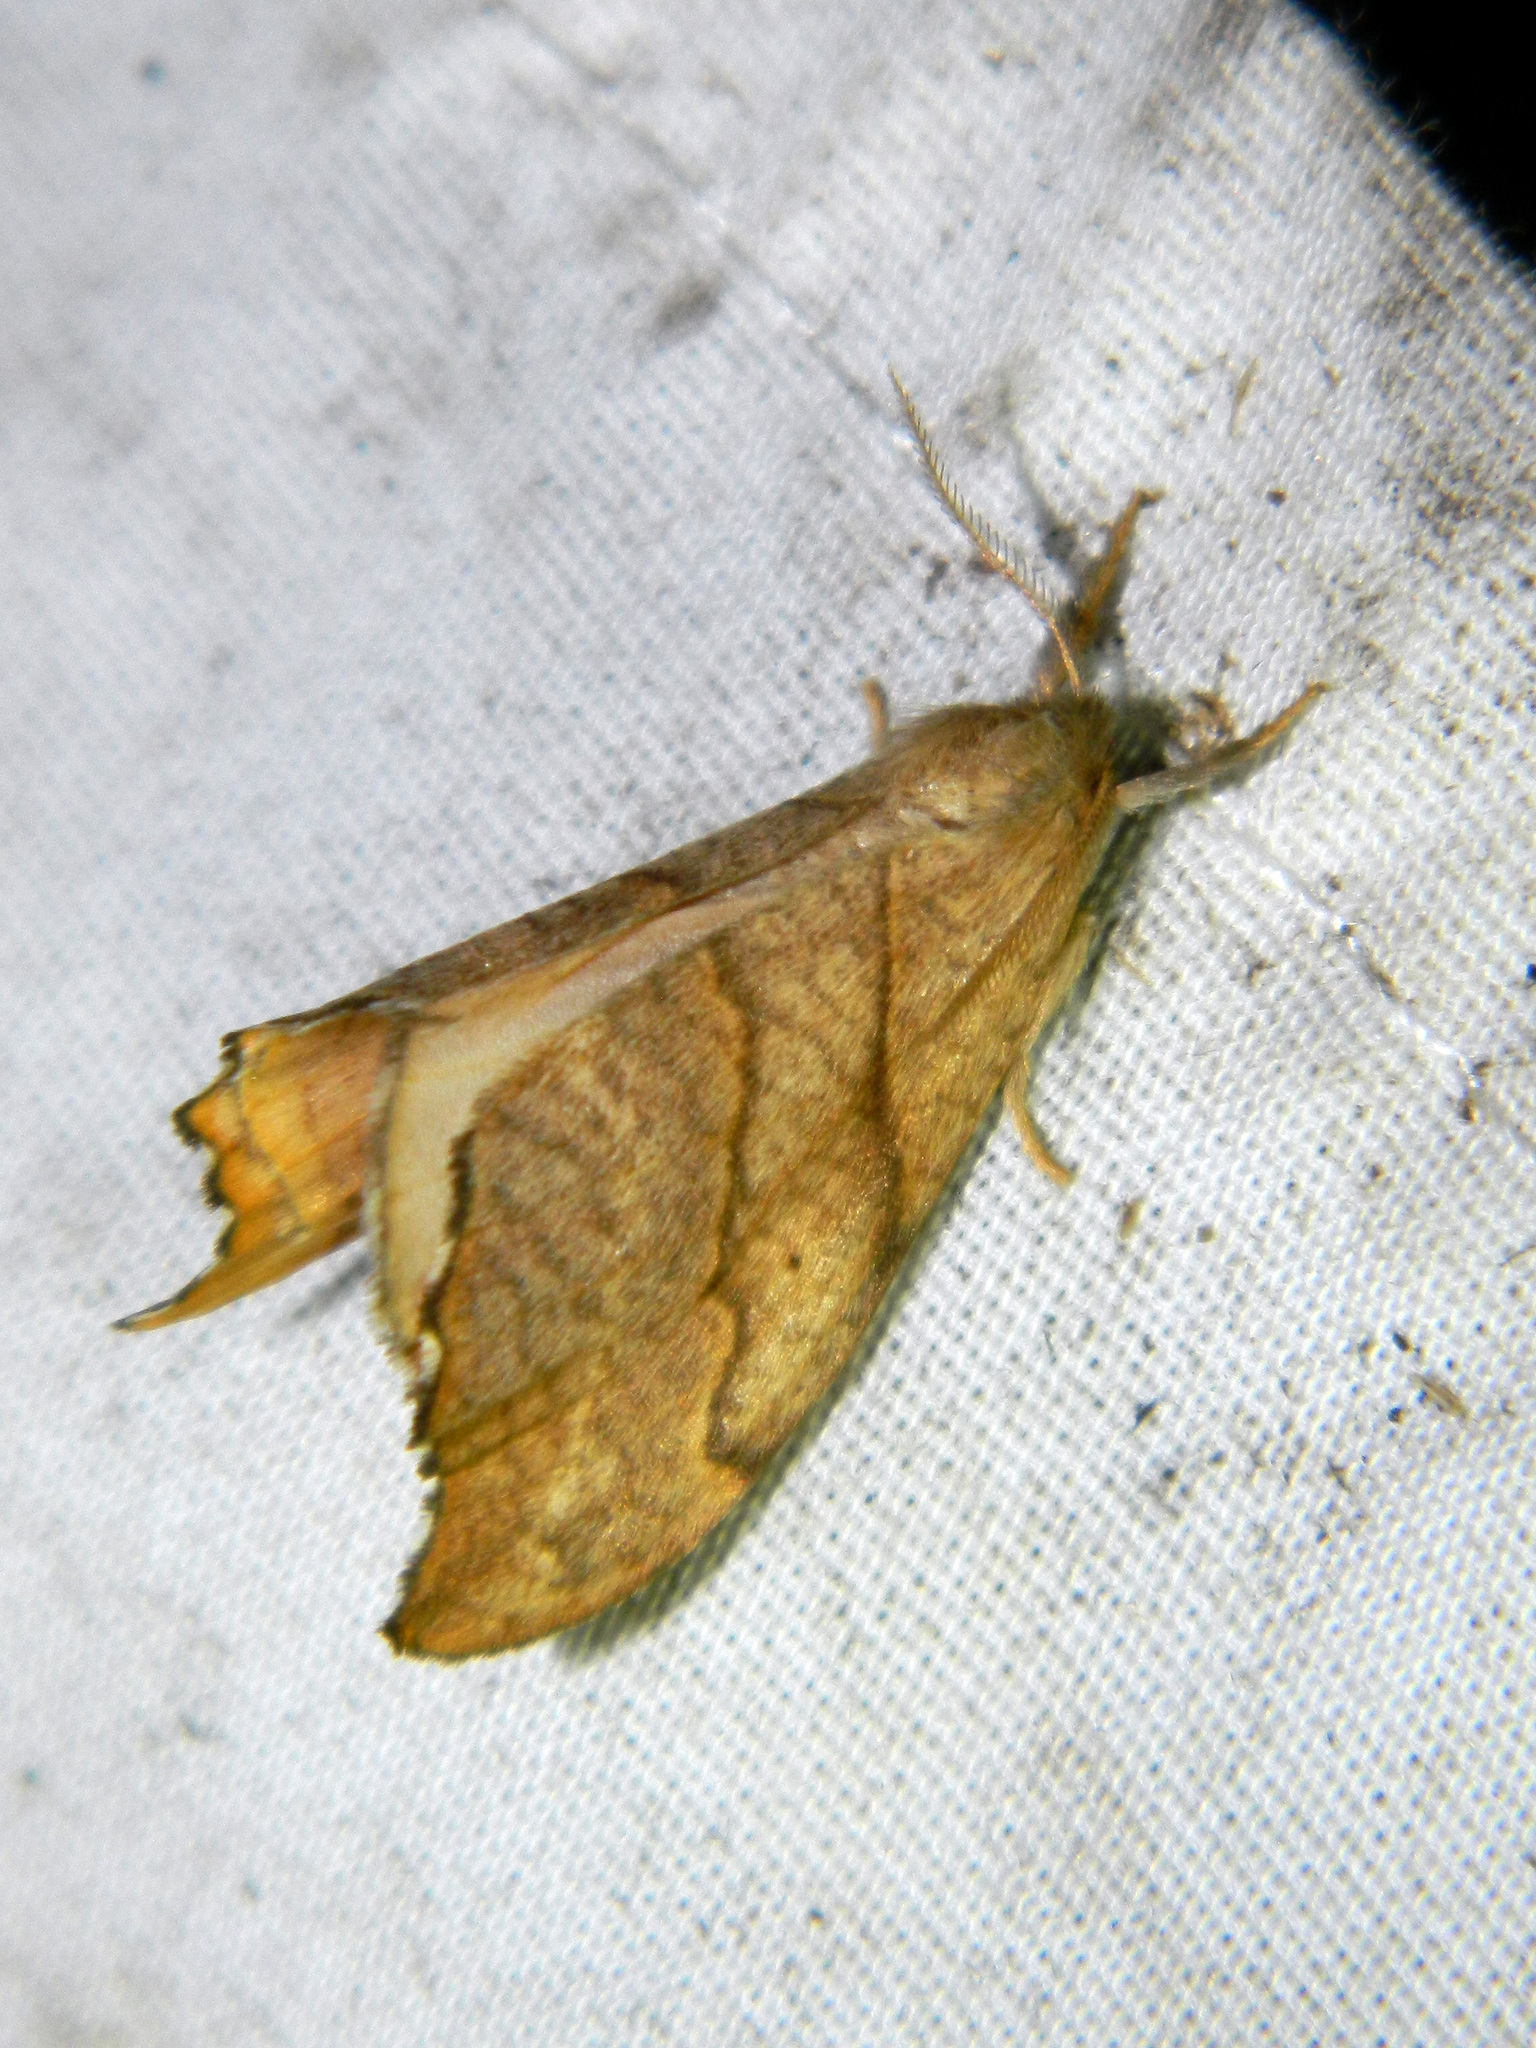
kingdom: Animalia
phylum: Arthropoda
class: Insecta
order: Lepidoptera
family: Drepanidae
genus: Falcaria
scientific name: Falcaria bilineata
